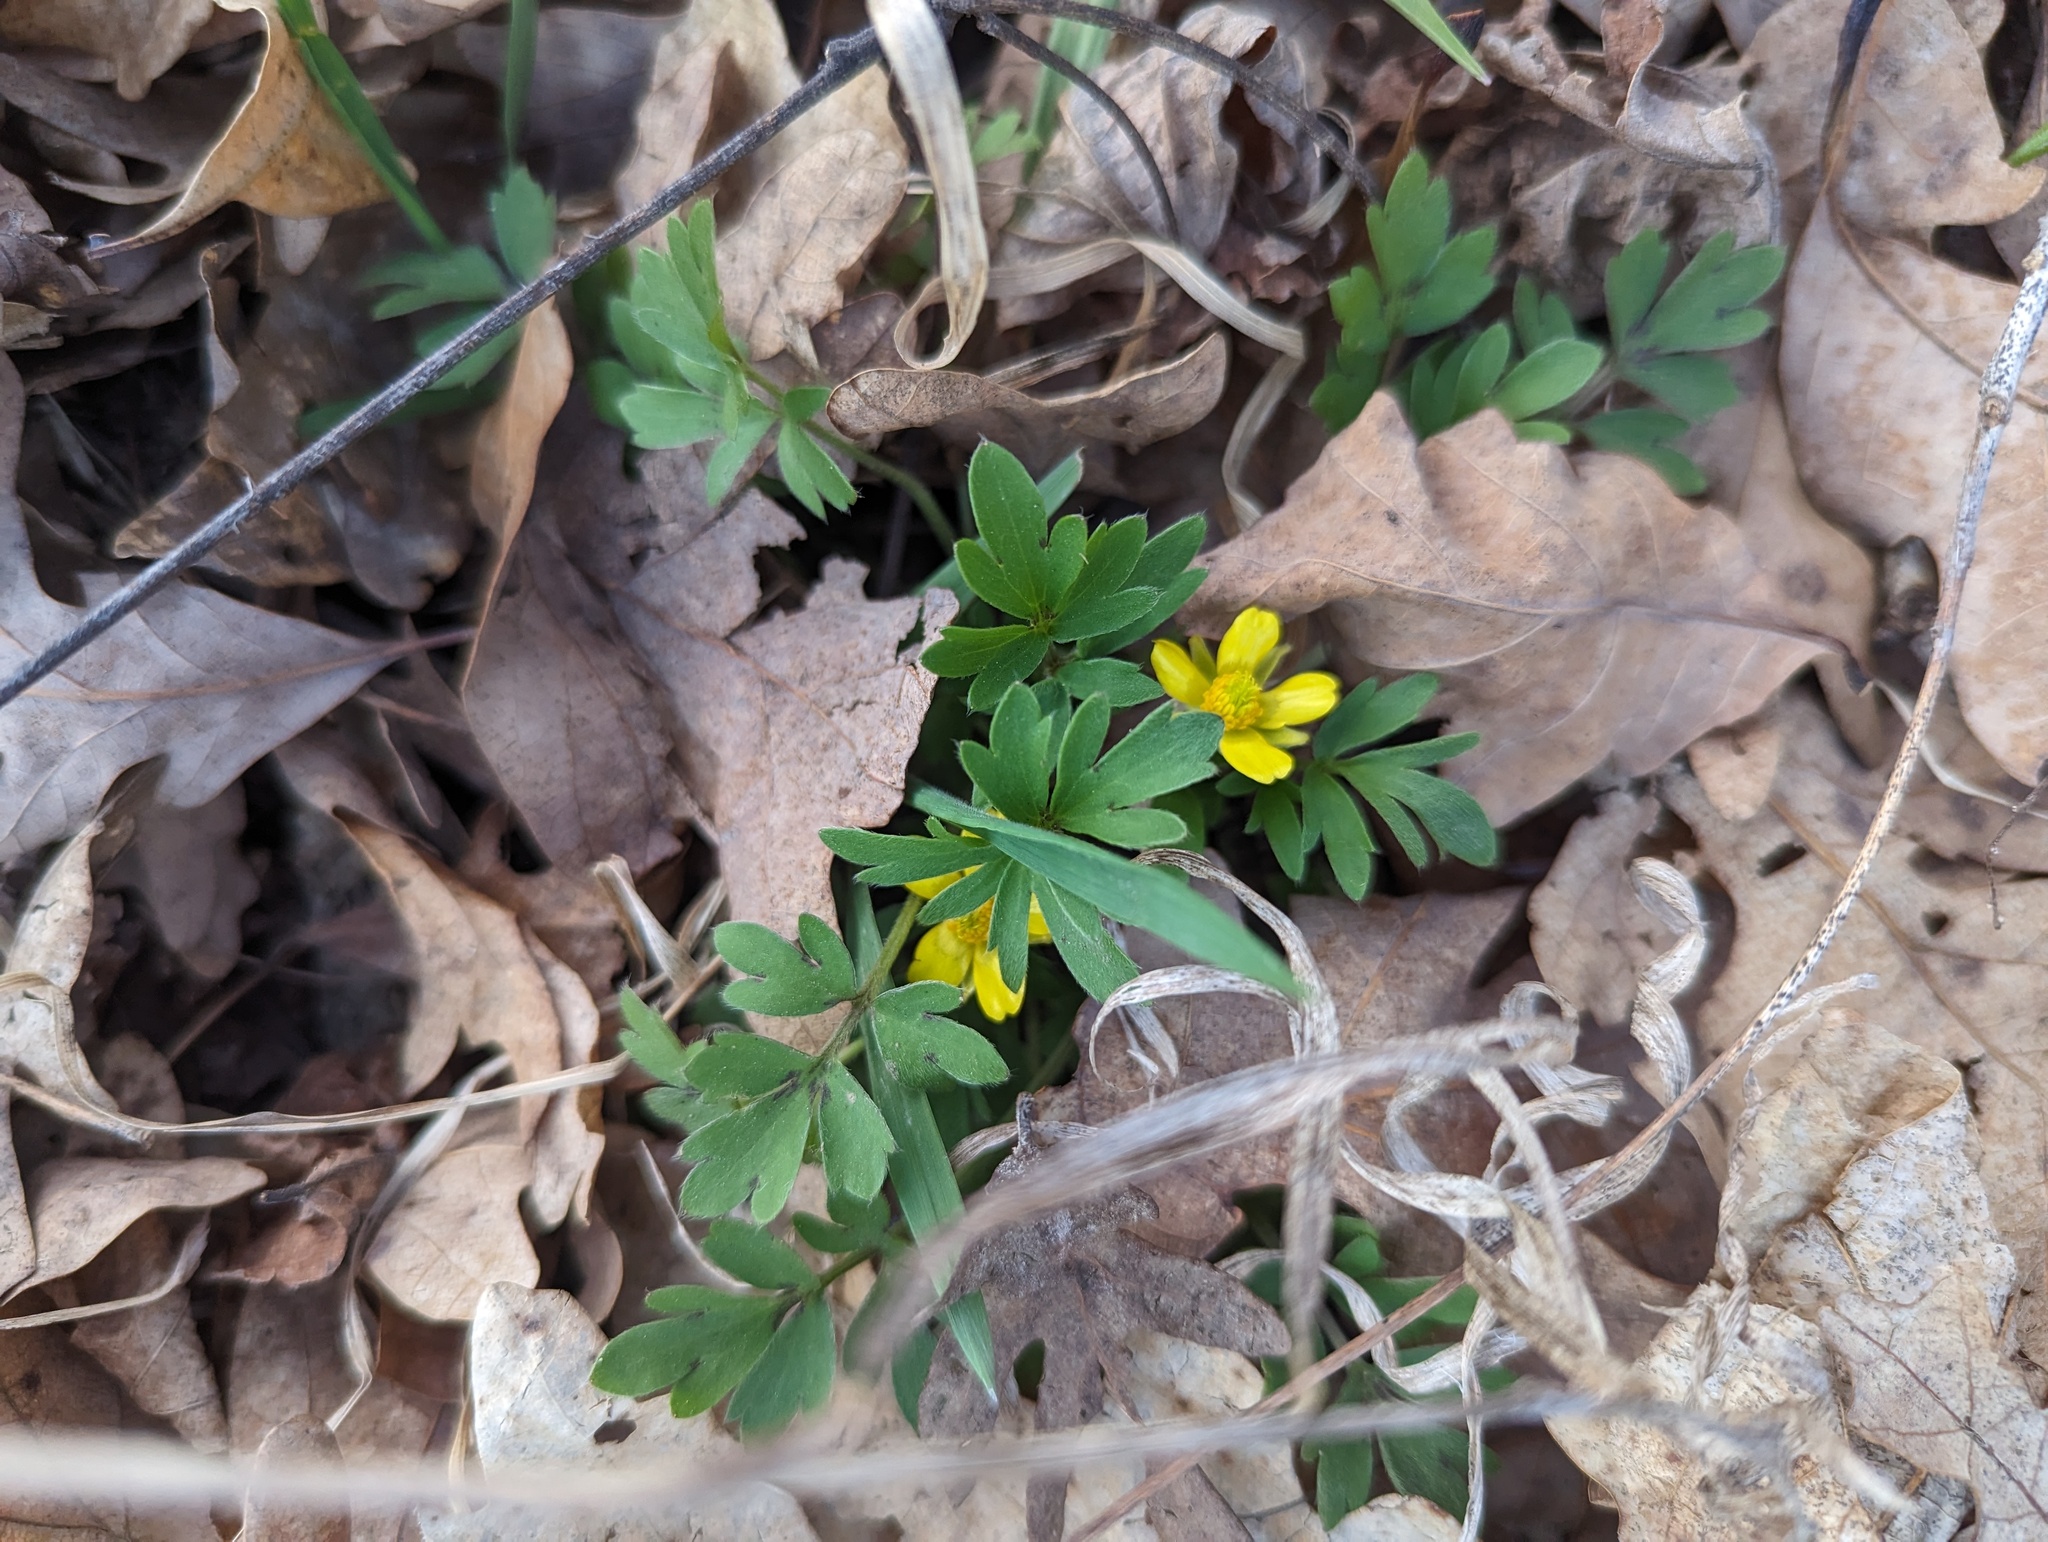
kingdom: Plantae
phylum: Tracheophyta
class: Magnoliopsida
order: Ranunculales
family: Ranunculaceae
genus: Ranunculus
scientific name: Ranunculus fascicularis
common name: Early buttercup
